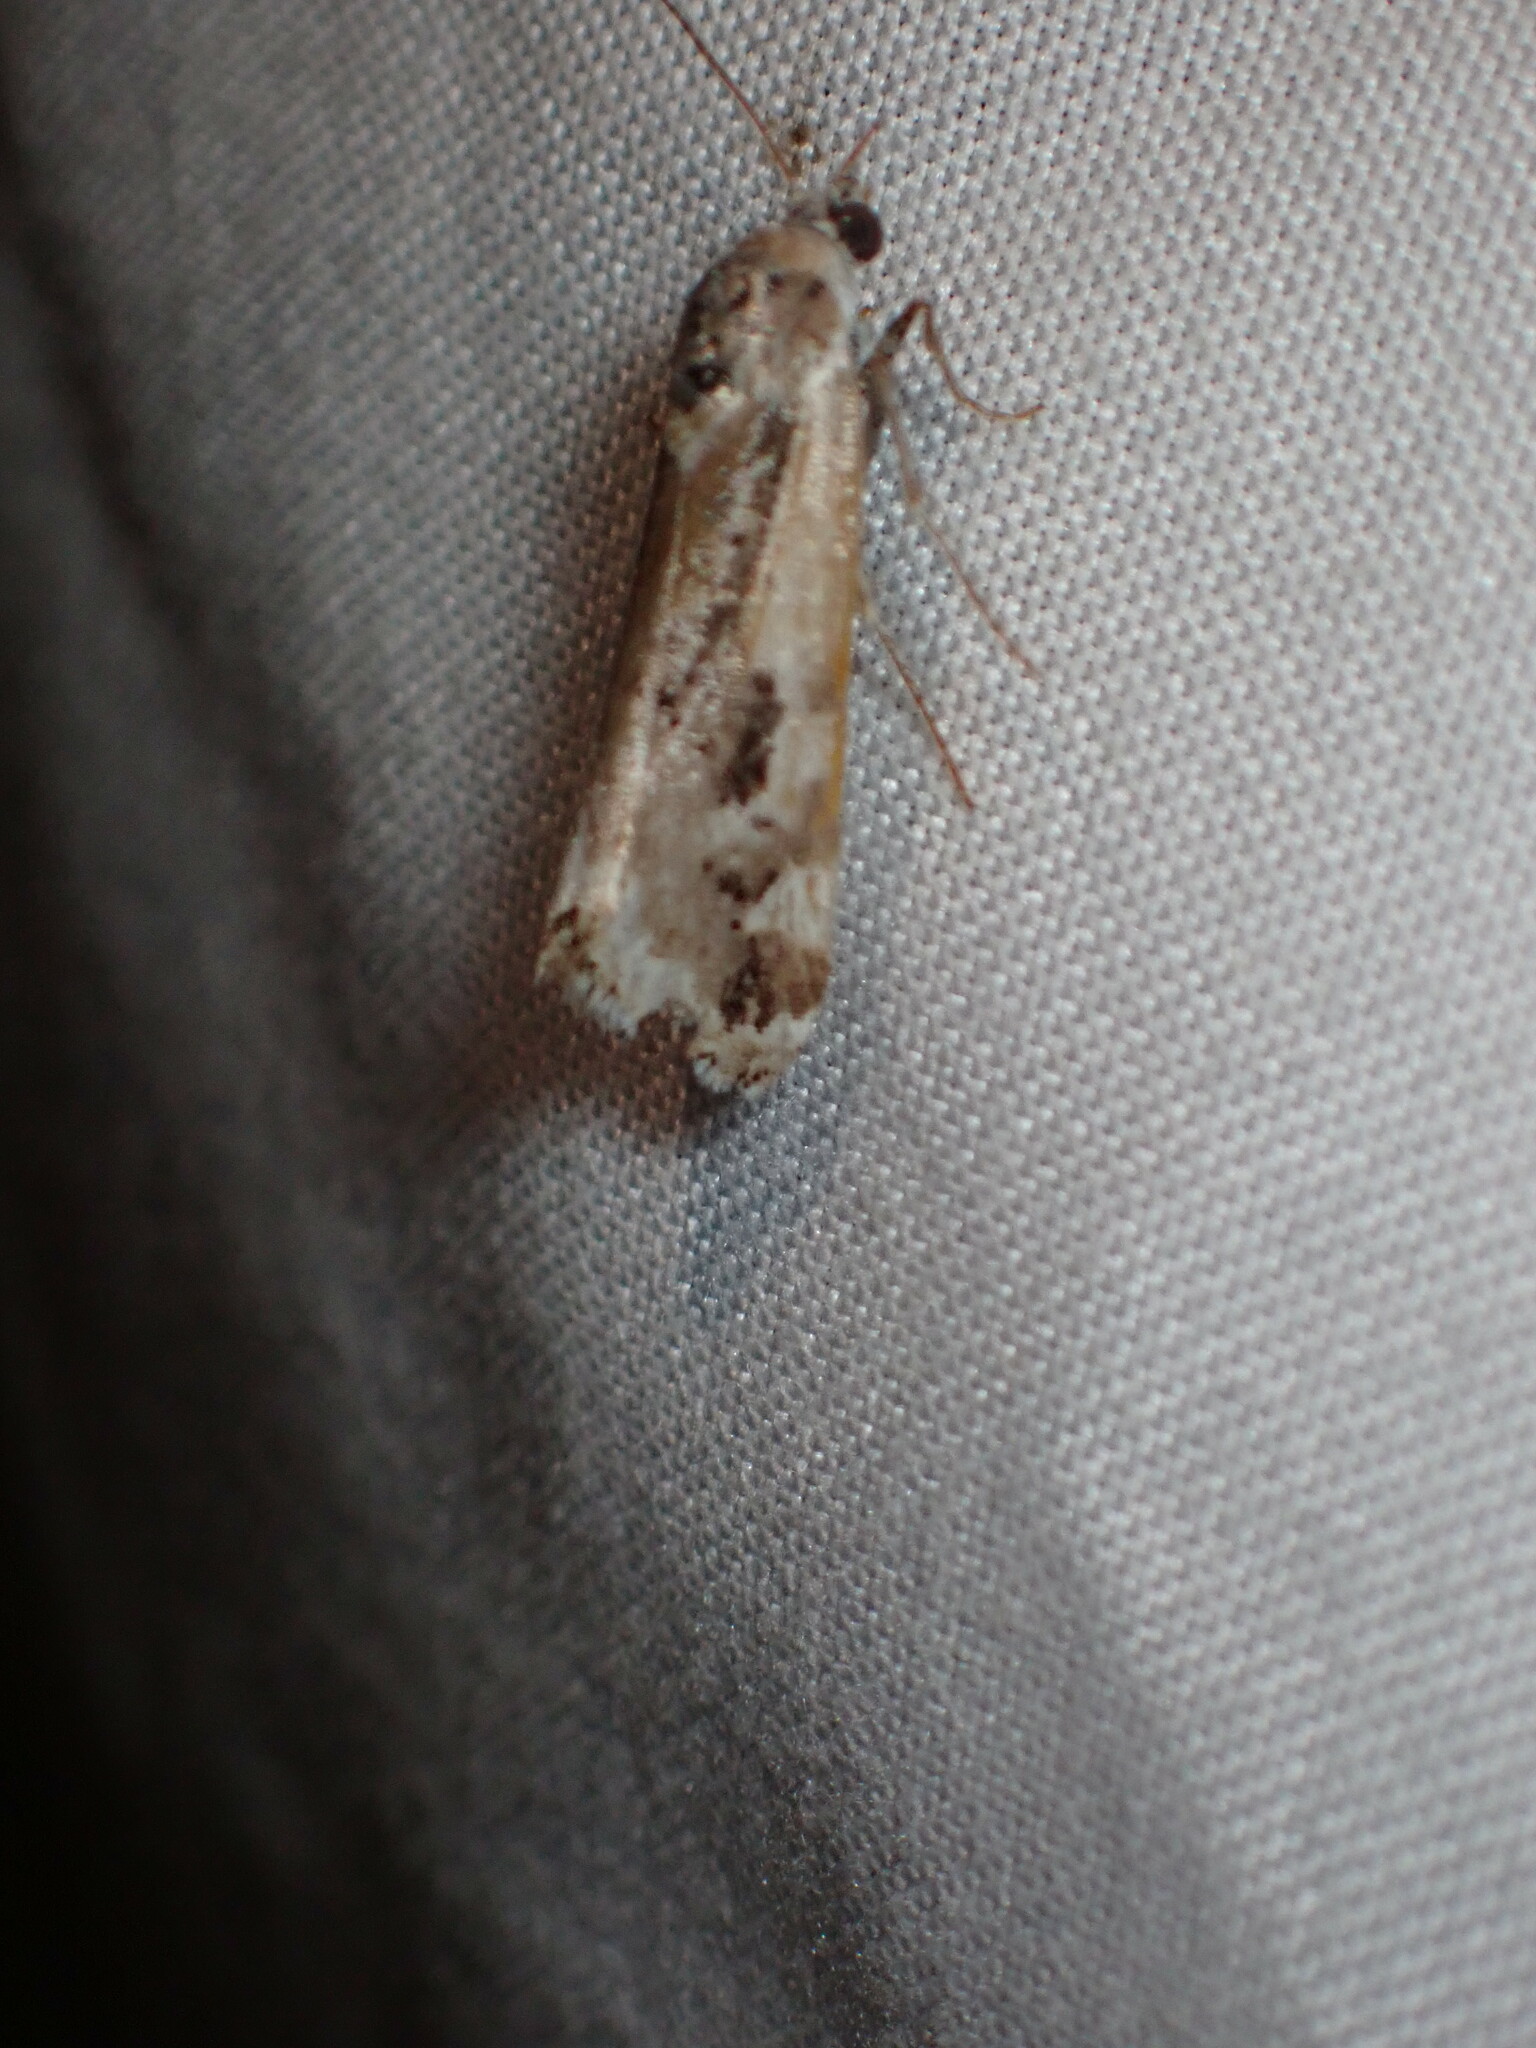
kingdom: Animalia
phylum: Arthropoda
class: Insecta
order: Lepidoptera
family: Noctuidae
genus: Acontia
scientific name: Acontia Tarache augustipennis
